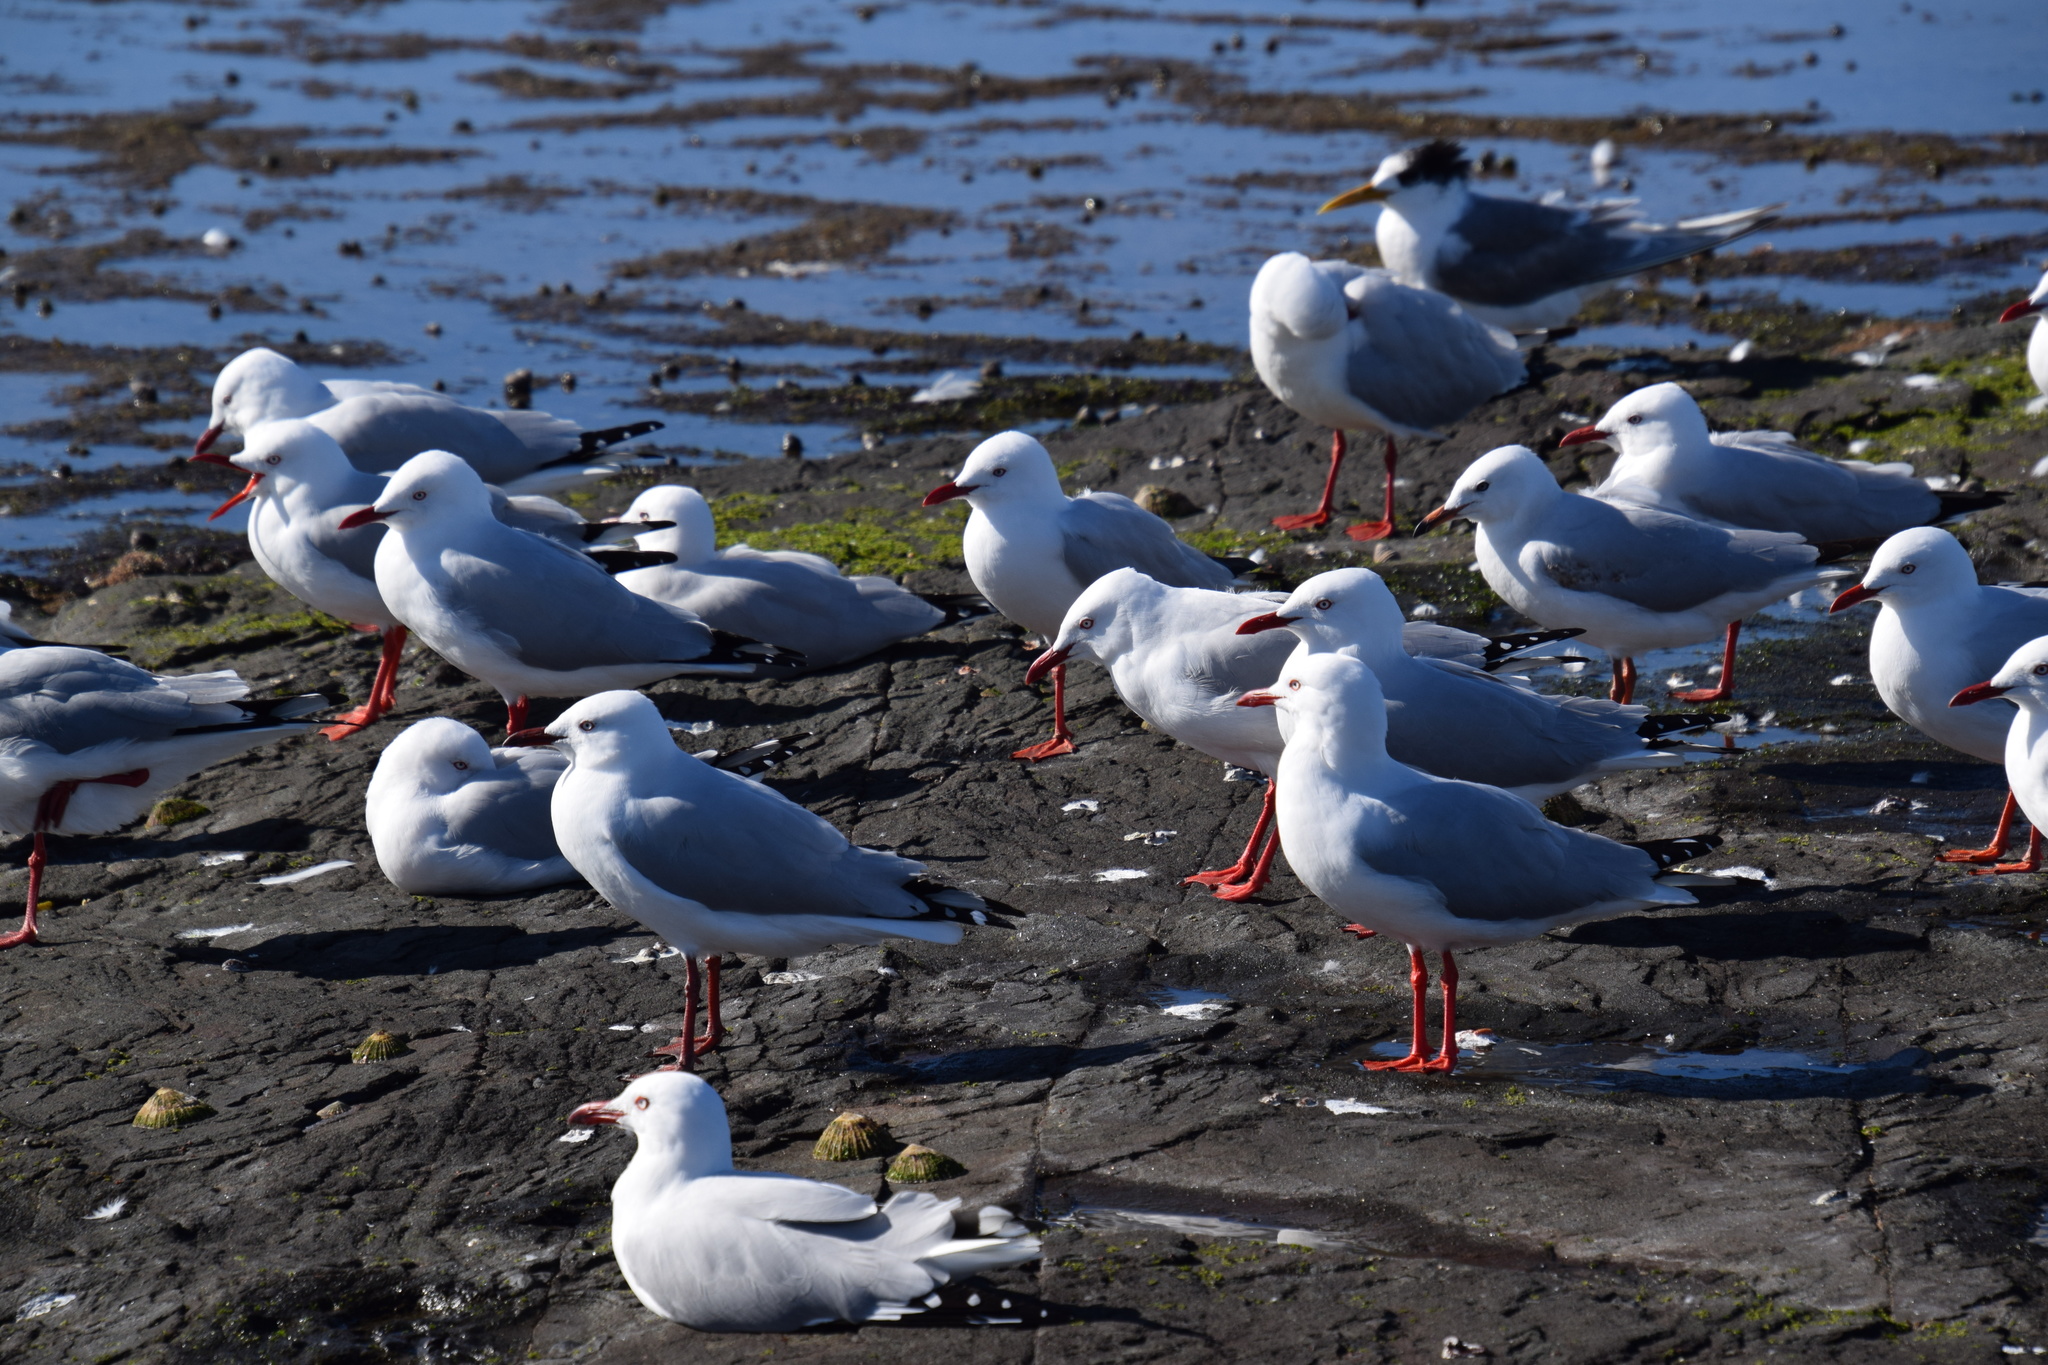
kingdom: Animalia
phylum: Chordata
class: Aves
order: Charadriiformes
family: Laridae
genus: Chroicocephalus
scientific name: Chroicocephalus novaehollandiae
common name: Silver gull
